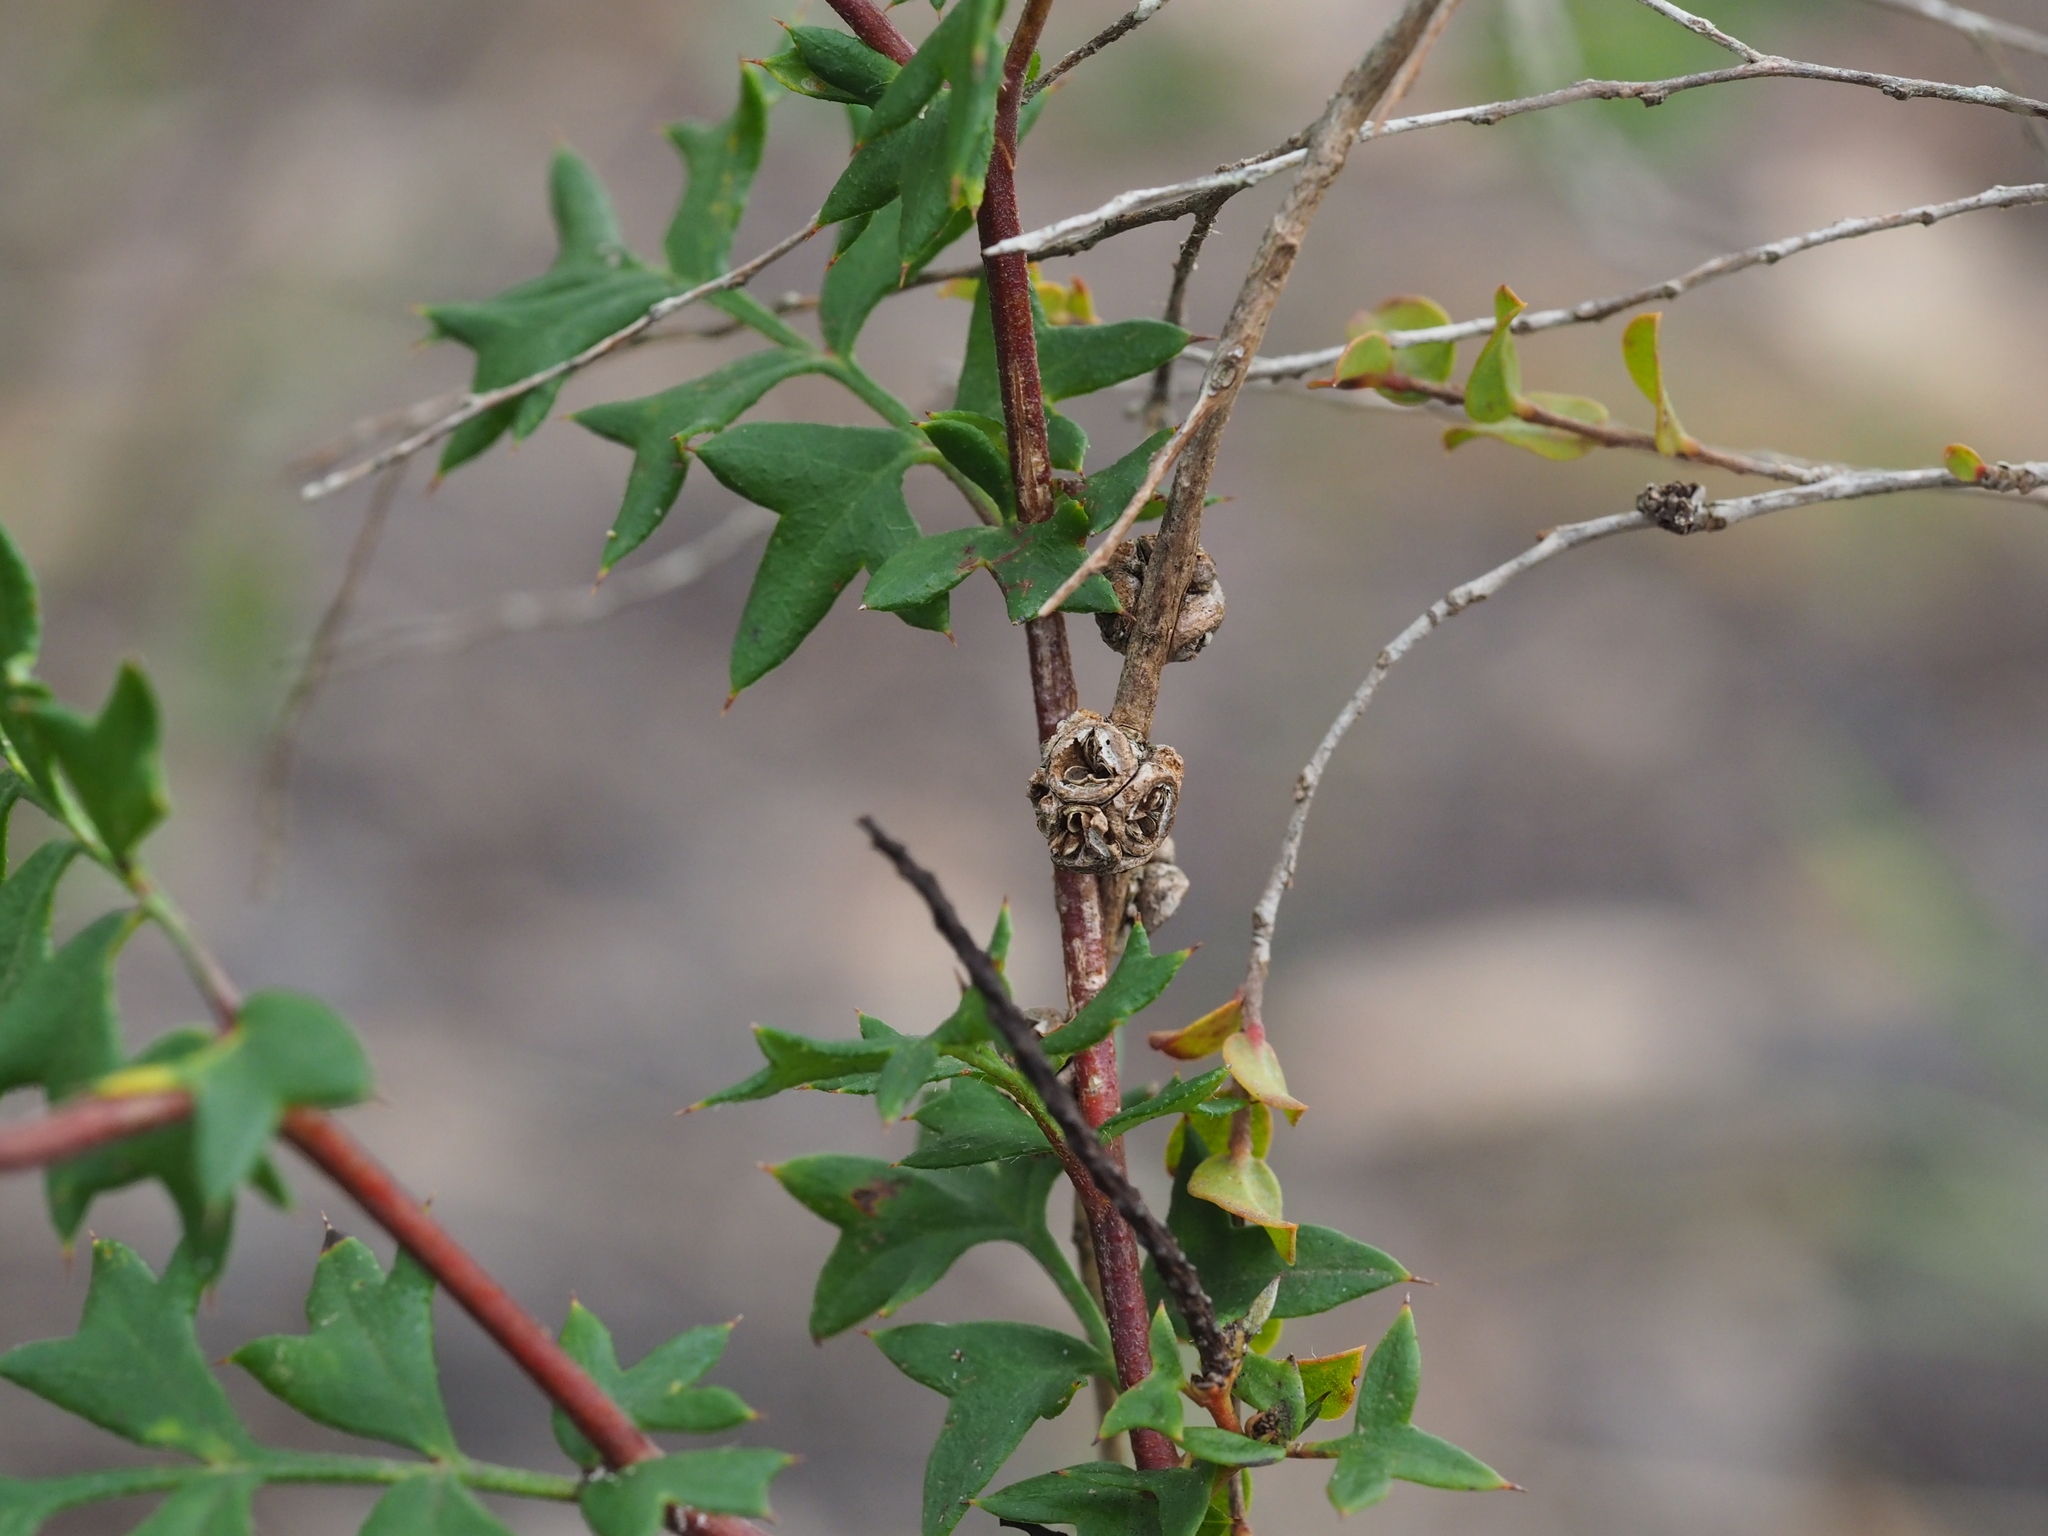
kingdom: Plantae
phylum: Tracheophyta
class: Magnoliopsida
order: Proteales
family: Proteaceae
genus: Grevillea
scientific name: Grevillea pulchella
